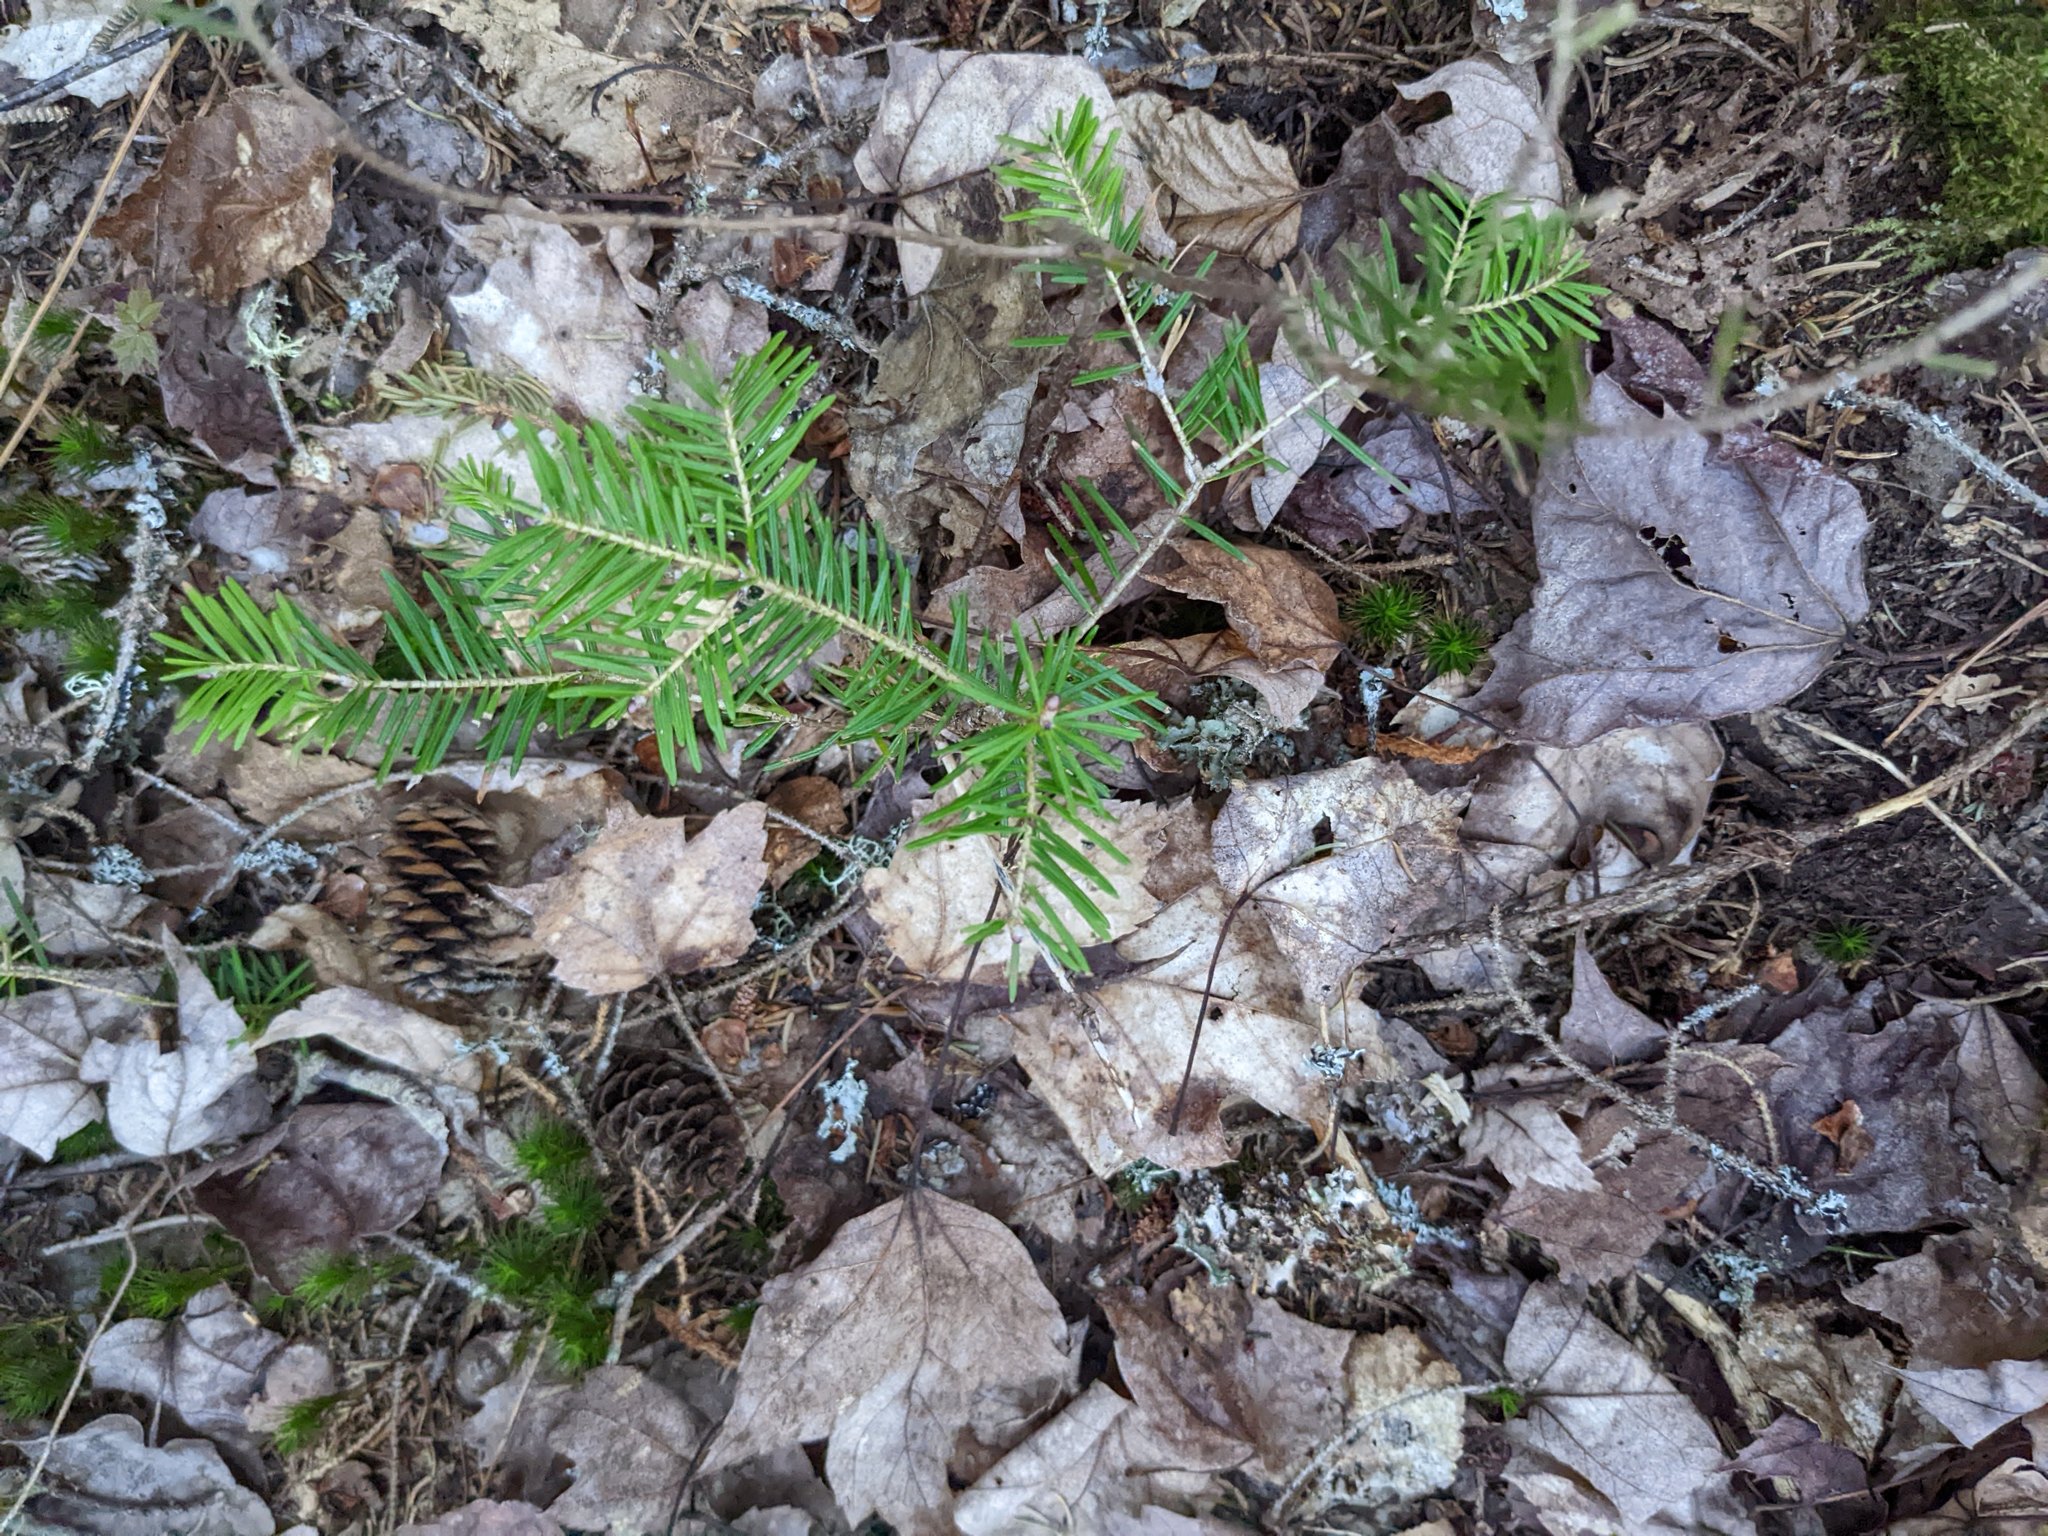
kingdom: Plantae
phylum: Tracheophyta
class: Pinopsida
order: Pinales
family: Pinaceae
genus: Abies
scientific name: Abies balsamea
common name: Balsam fir
